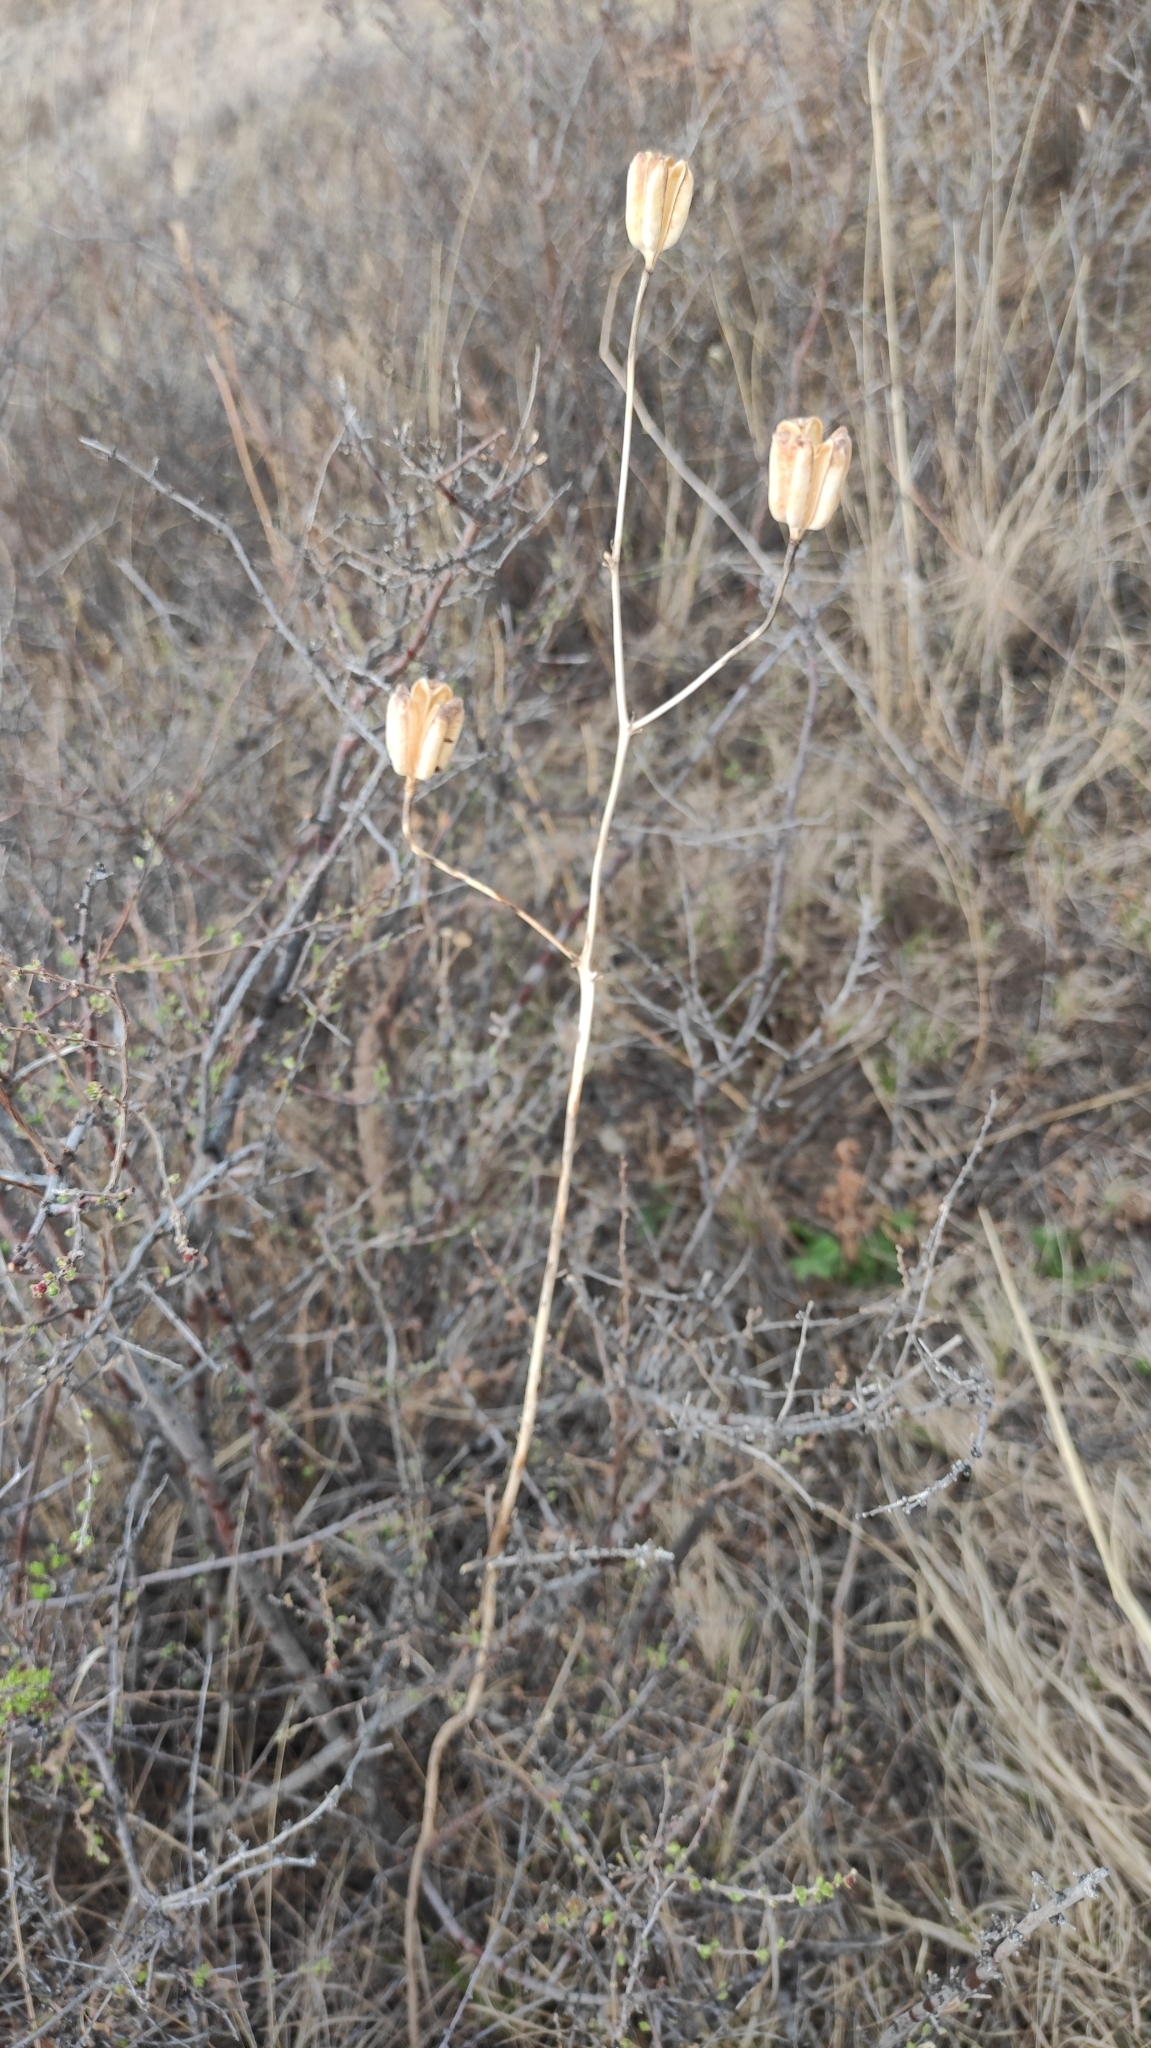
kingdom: Plantae
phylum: Tracheophyta
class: Liliopsida
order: Liliales
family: Liliaceae
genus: Lilium
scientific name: Lilium pumilum
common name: Coral lily
